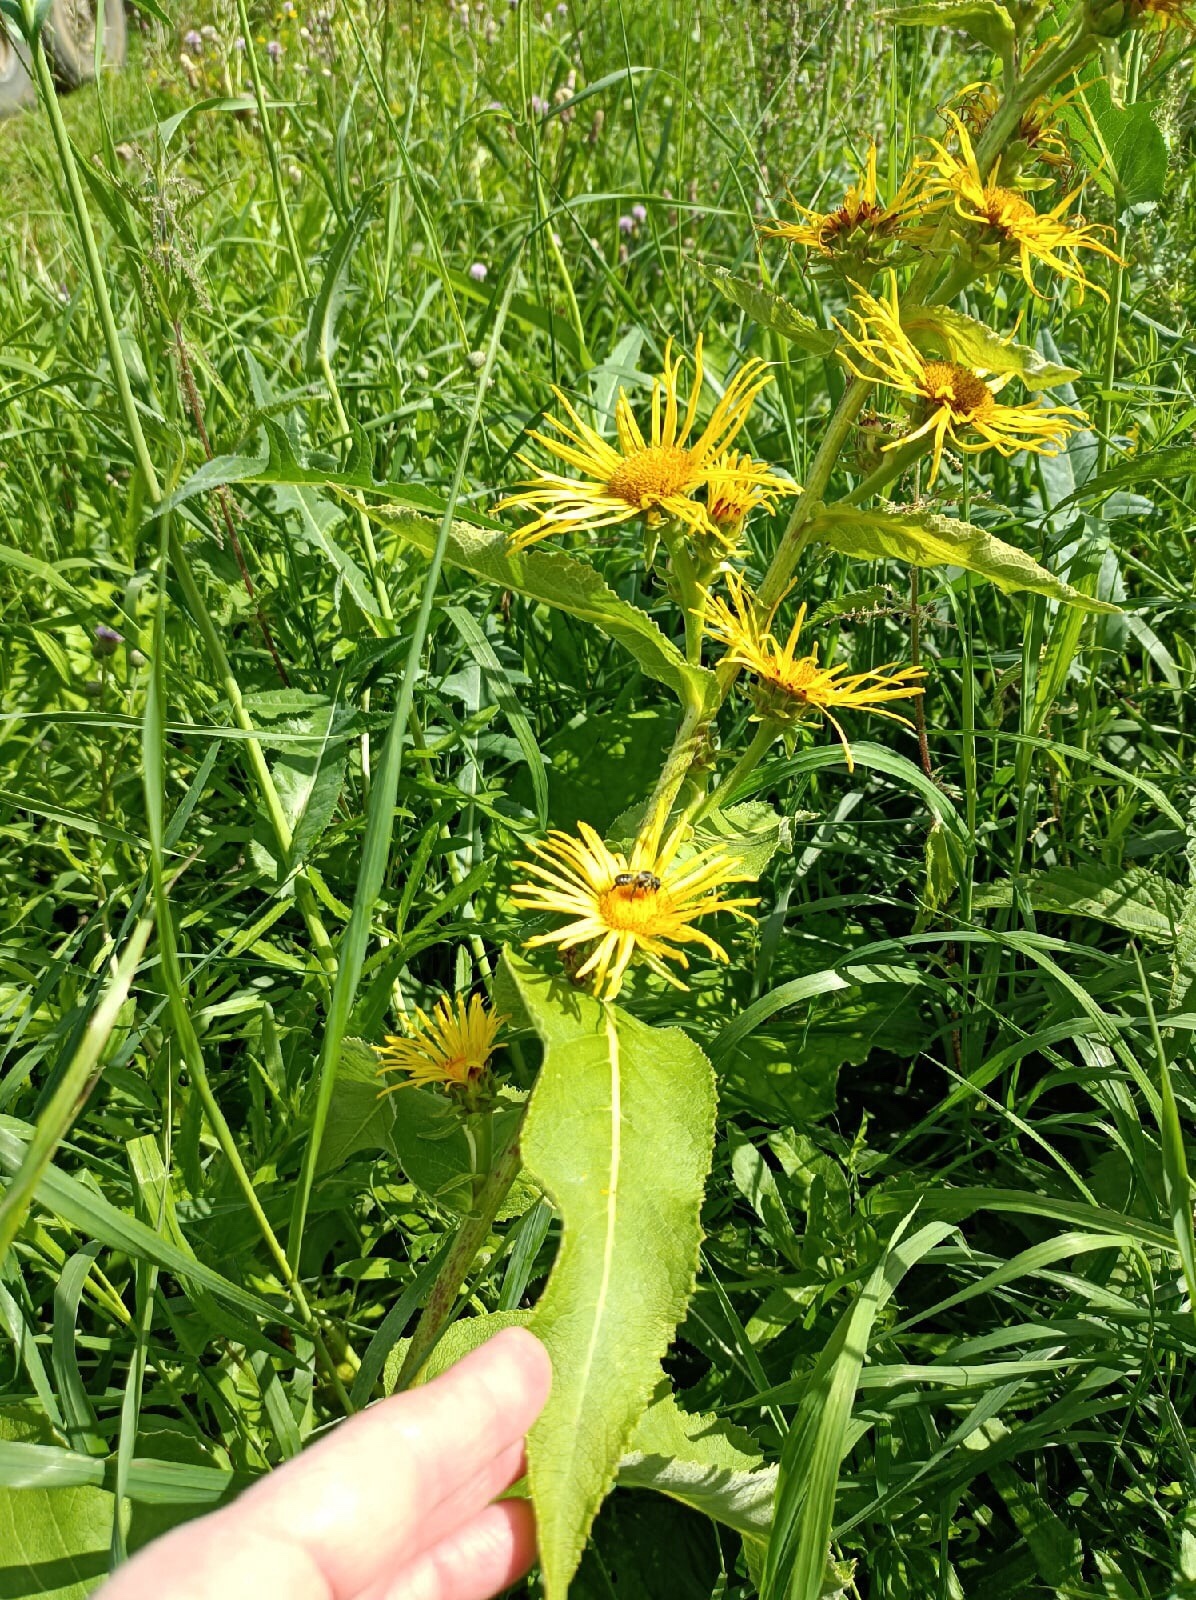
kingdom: Plantae
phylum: Tracheophyta
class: Magnoliopsida
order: Asterales
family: Asteraceae
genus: Inula
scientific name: Inula helenium
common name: Elecampane
